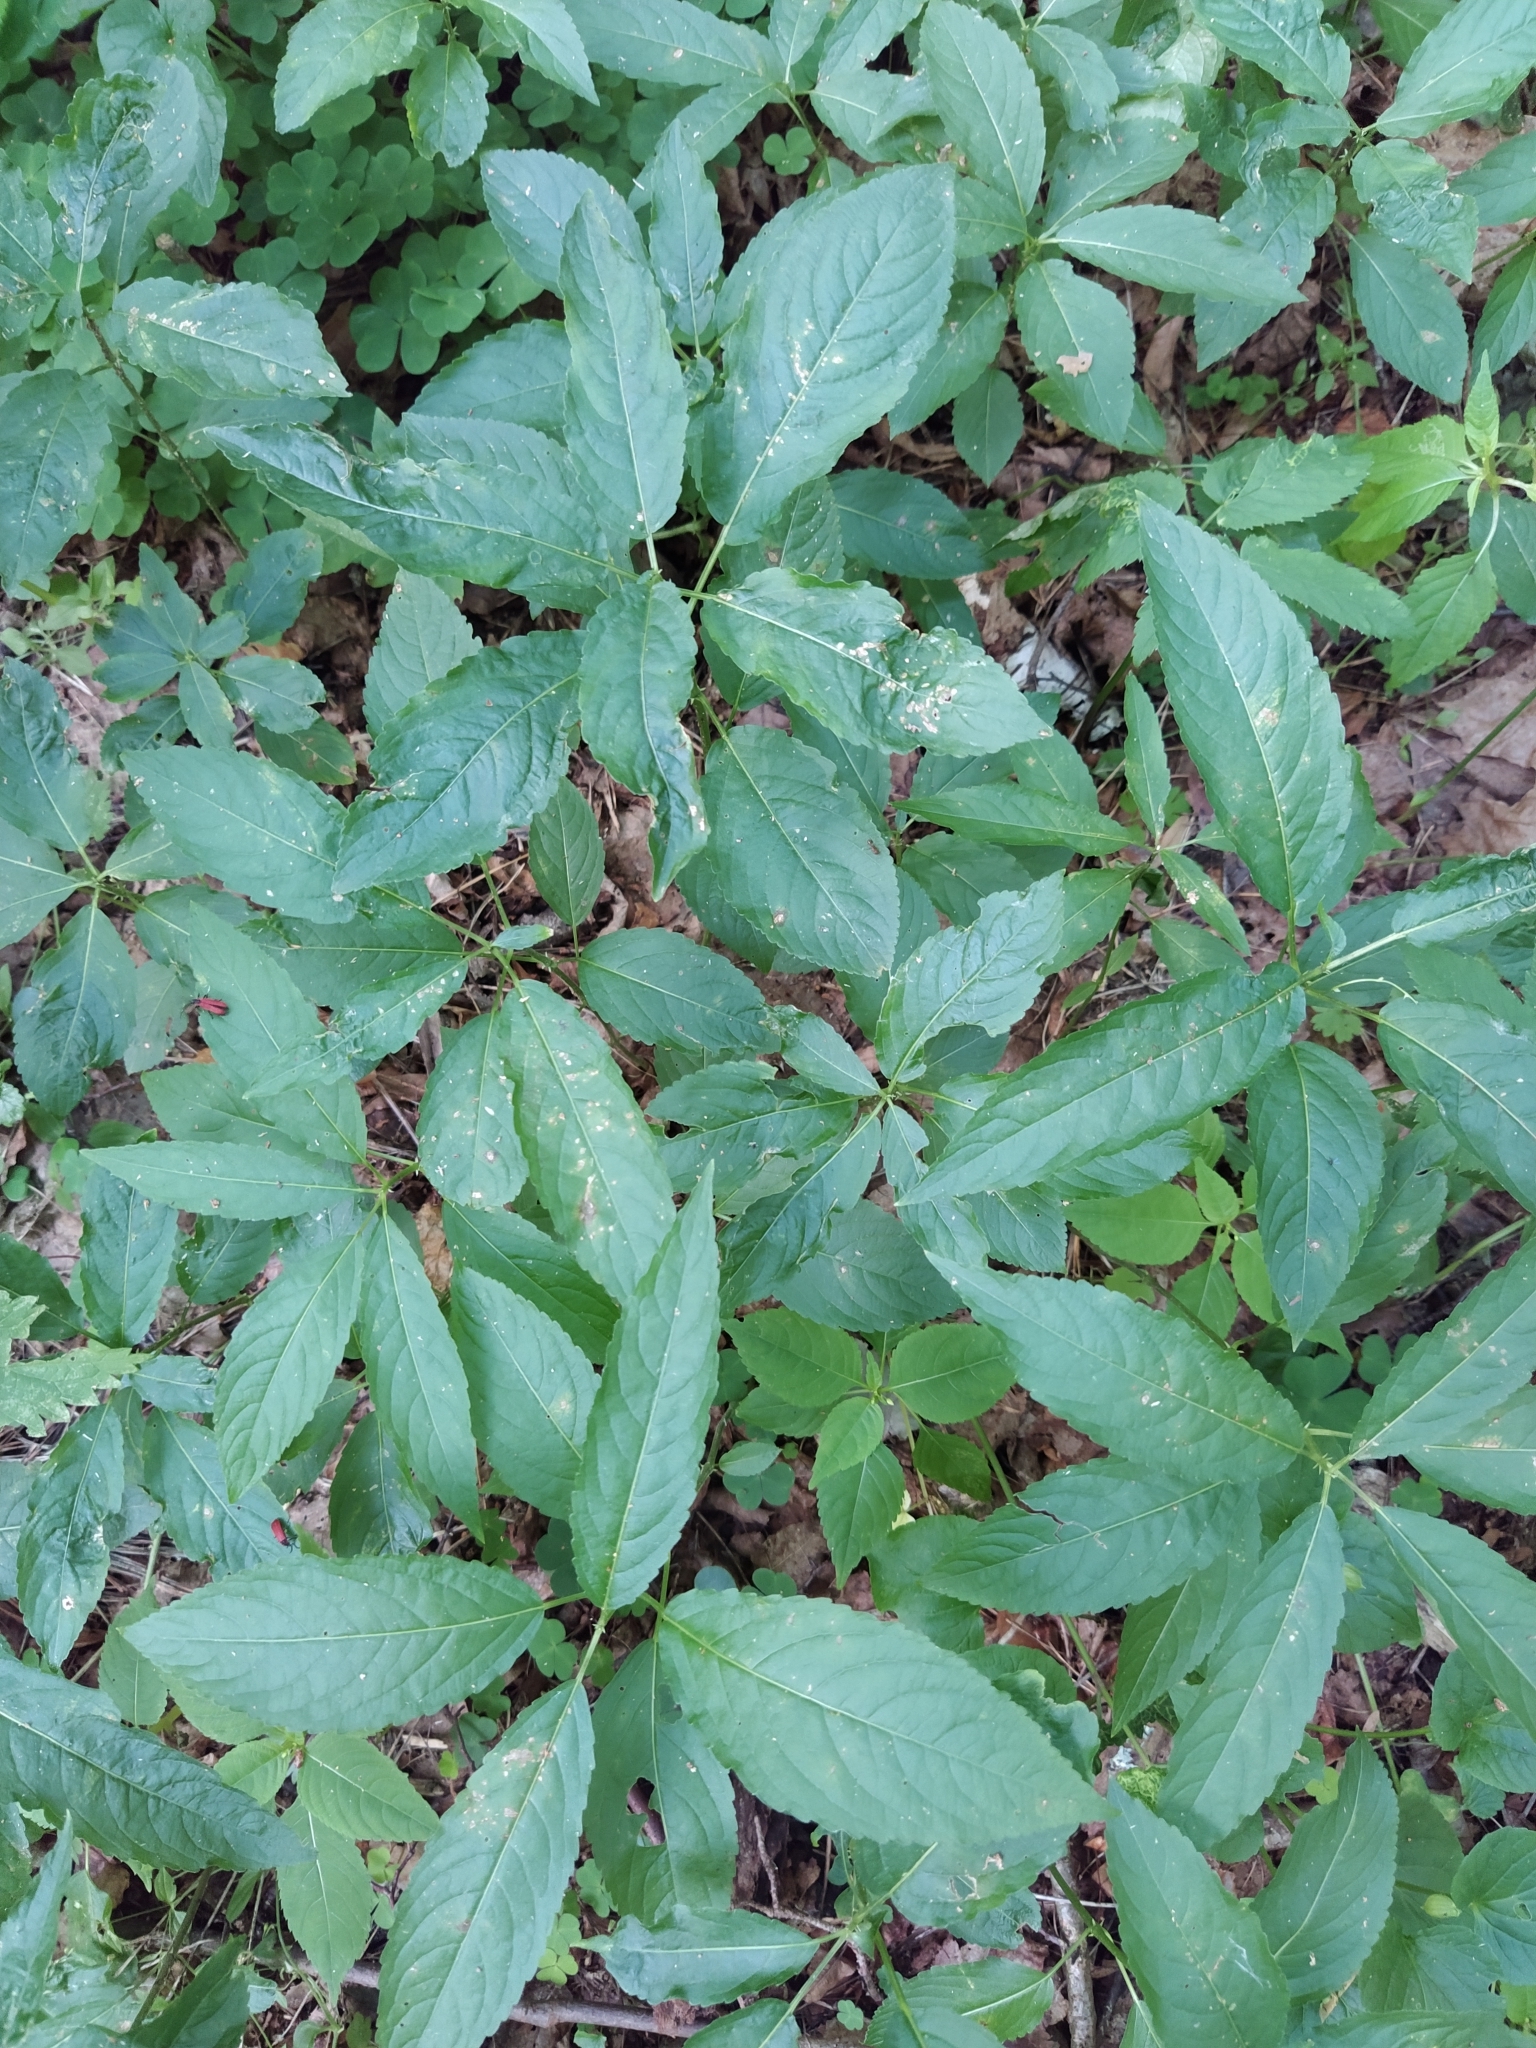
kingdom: Plantae
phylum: Tracheophyta
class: Magnoliopsida
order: Malpighiales
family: Euphorbiaceae
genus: Mercurialis
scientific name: Mercurialis perennis
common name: Dog mercury
